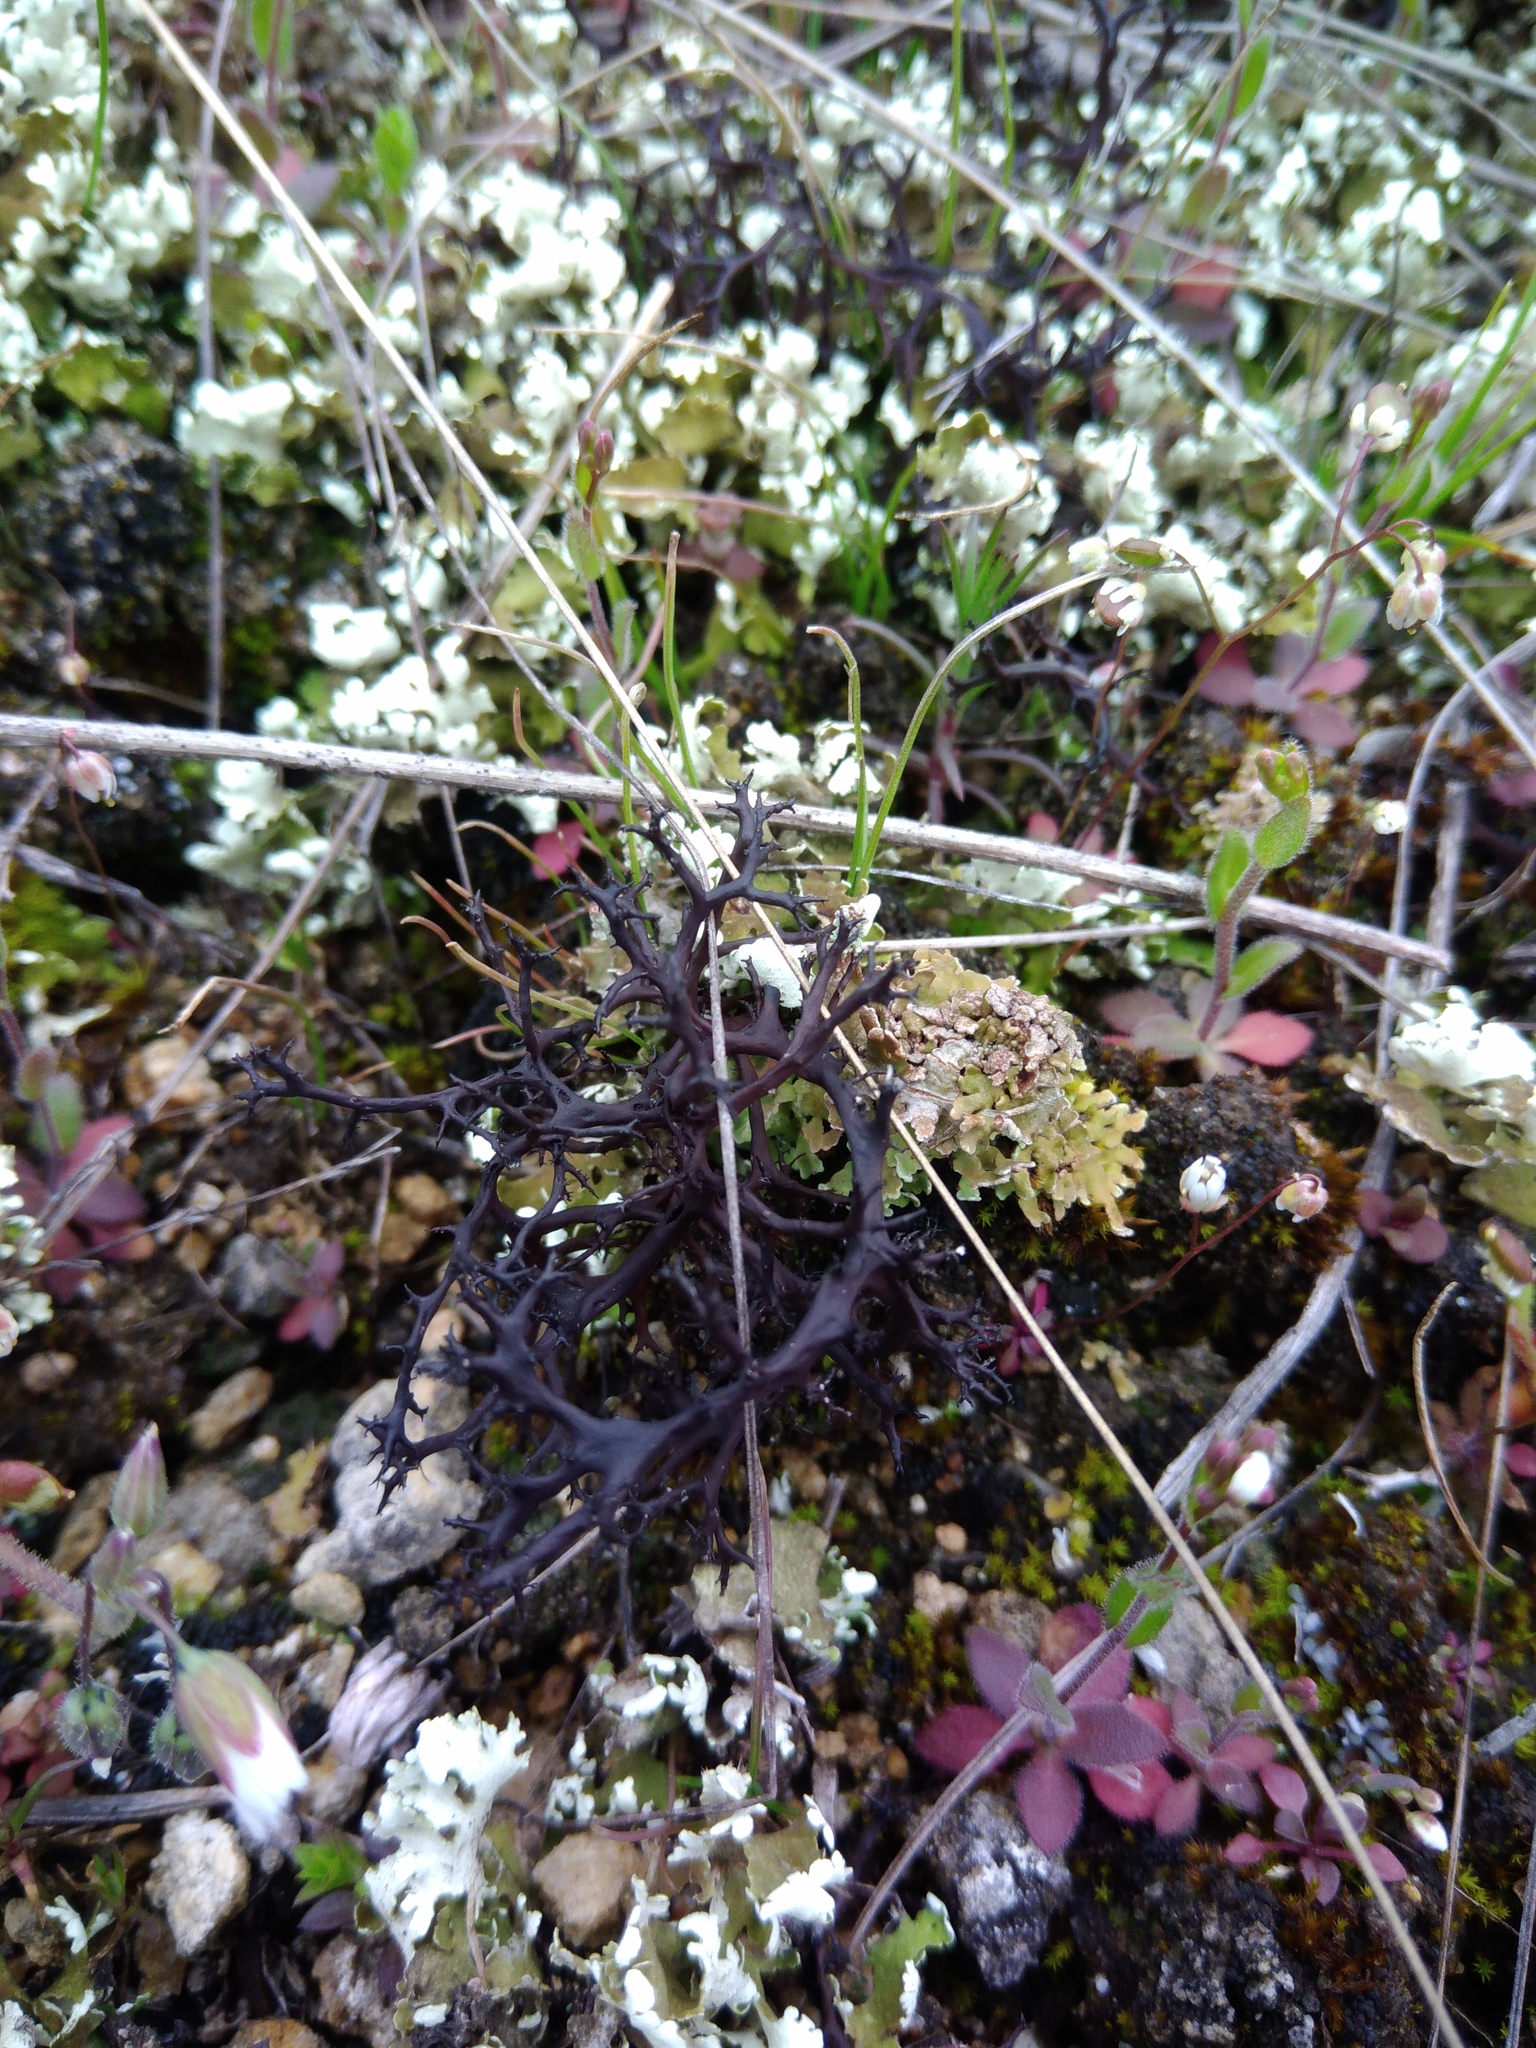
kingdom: Fungi
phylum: Ascomycota
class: Lecanoromycetes
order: Lecanorales
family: Parmeliaceae
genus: Cetraria
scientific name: Cetraria aculeata
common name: Spiny heath lichen
